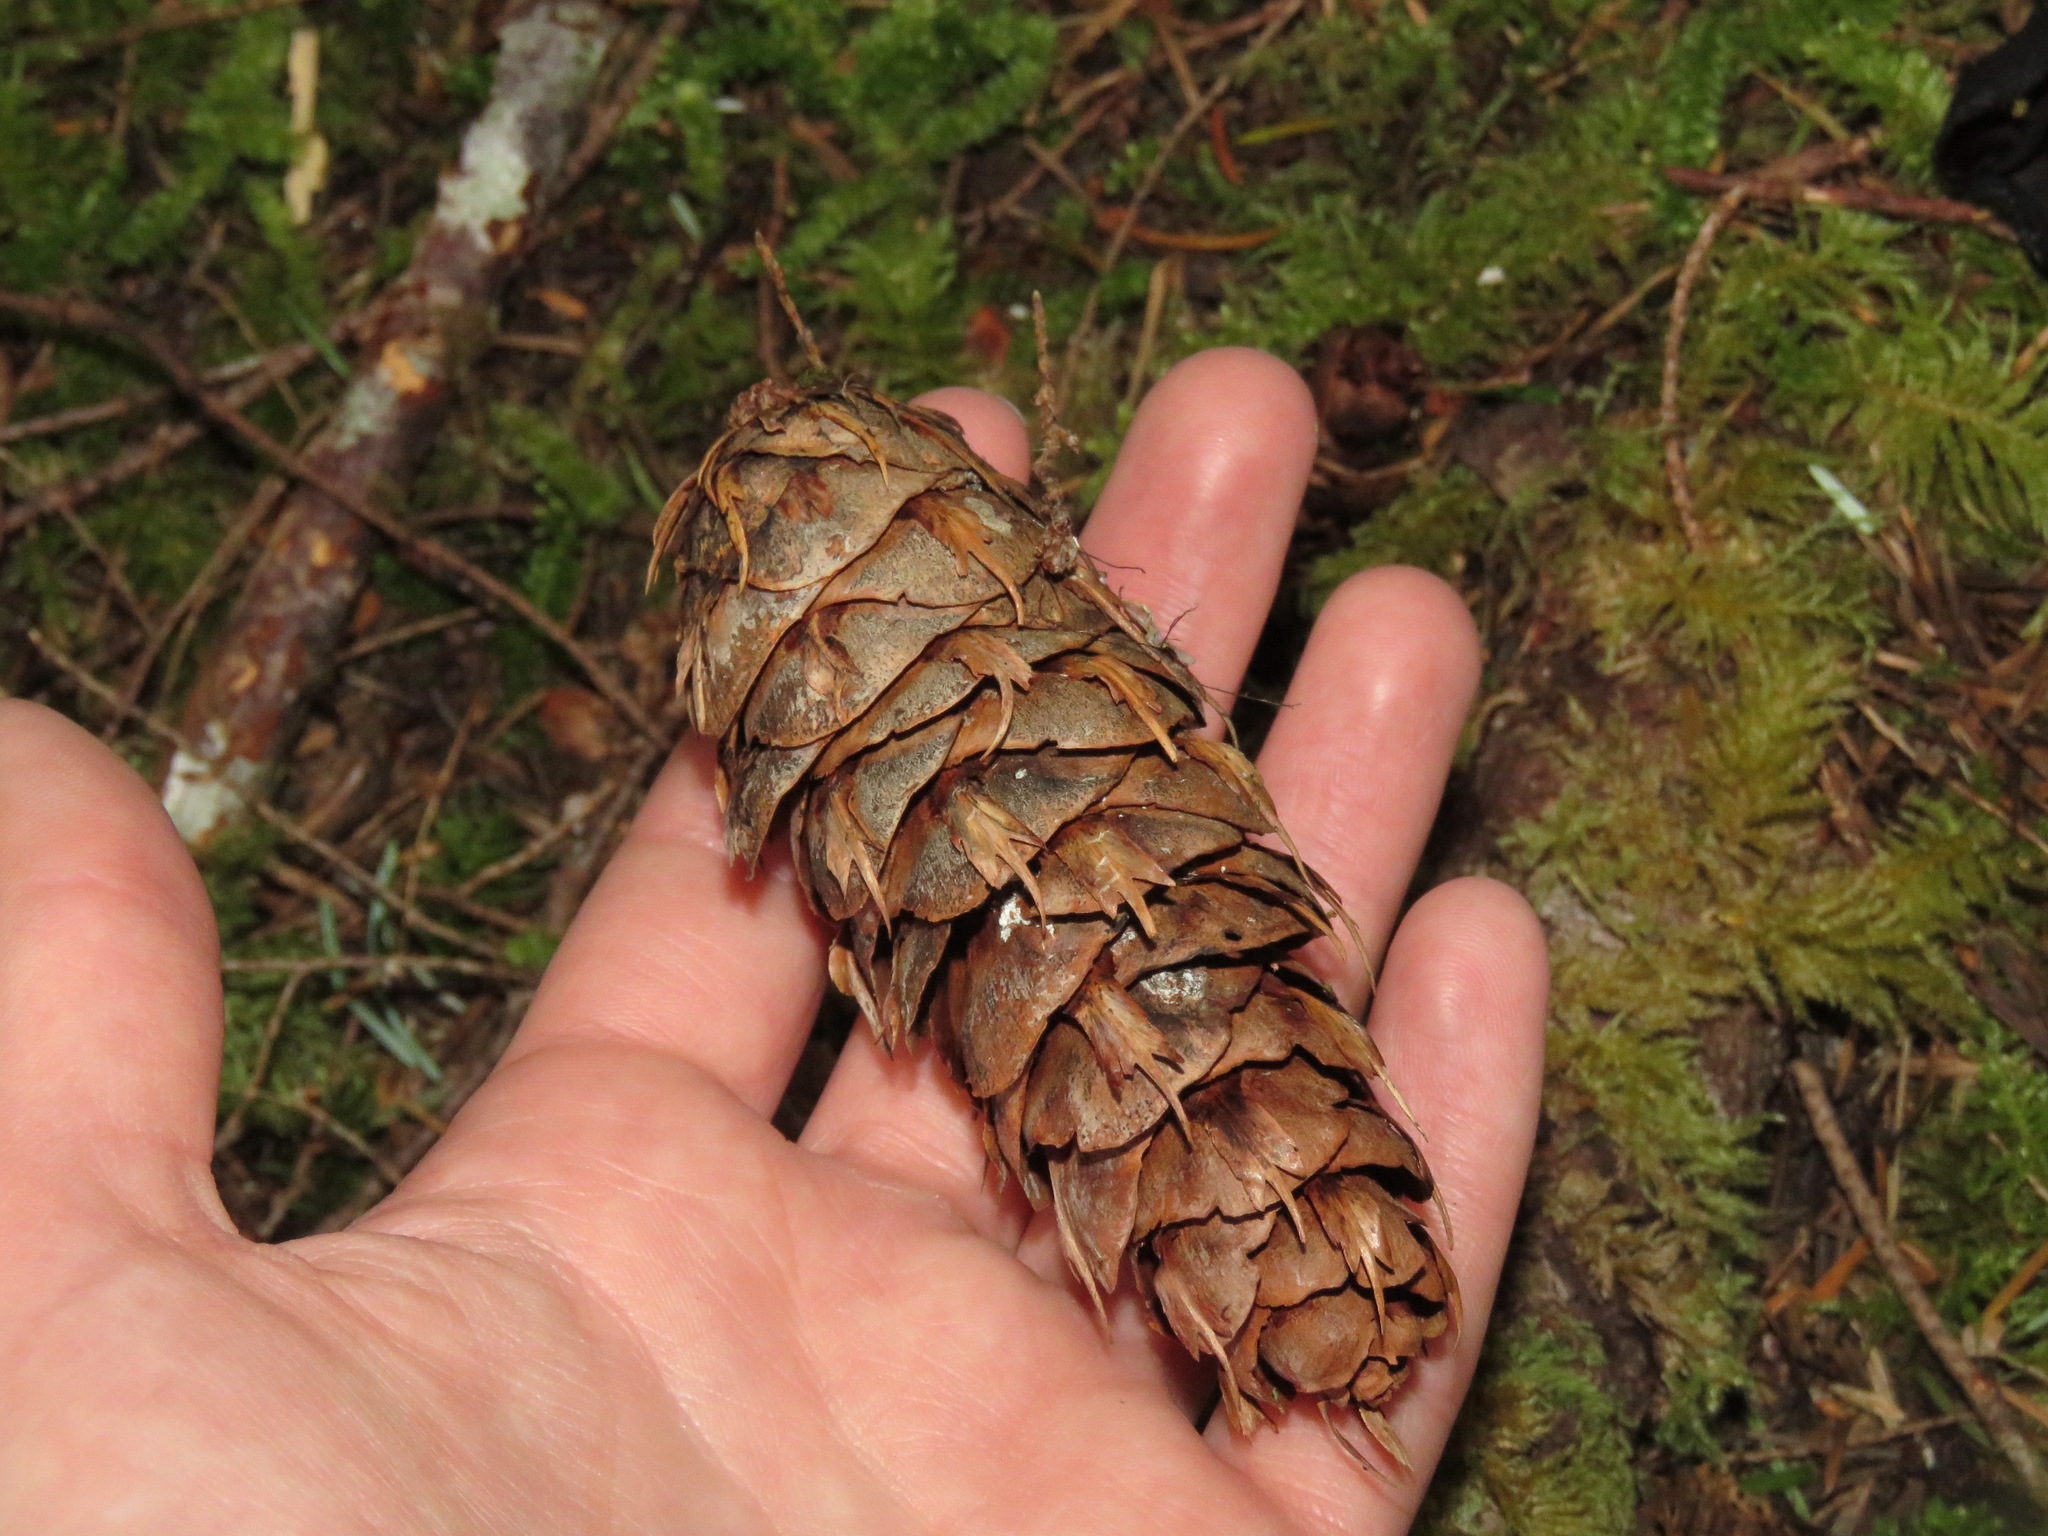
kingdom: Plantae
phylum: Tracheophyta
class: Pinopsida
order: Pinales
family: Pinaceae
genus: Pseudotsuga
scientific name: Pseudotsuga menziesii
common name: Douglas fir
